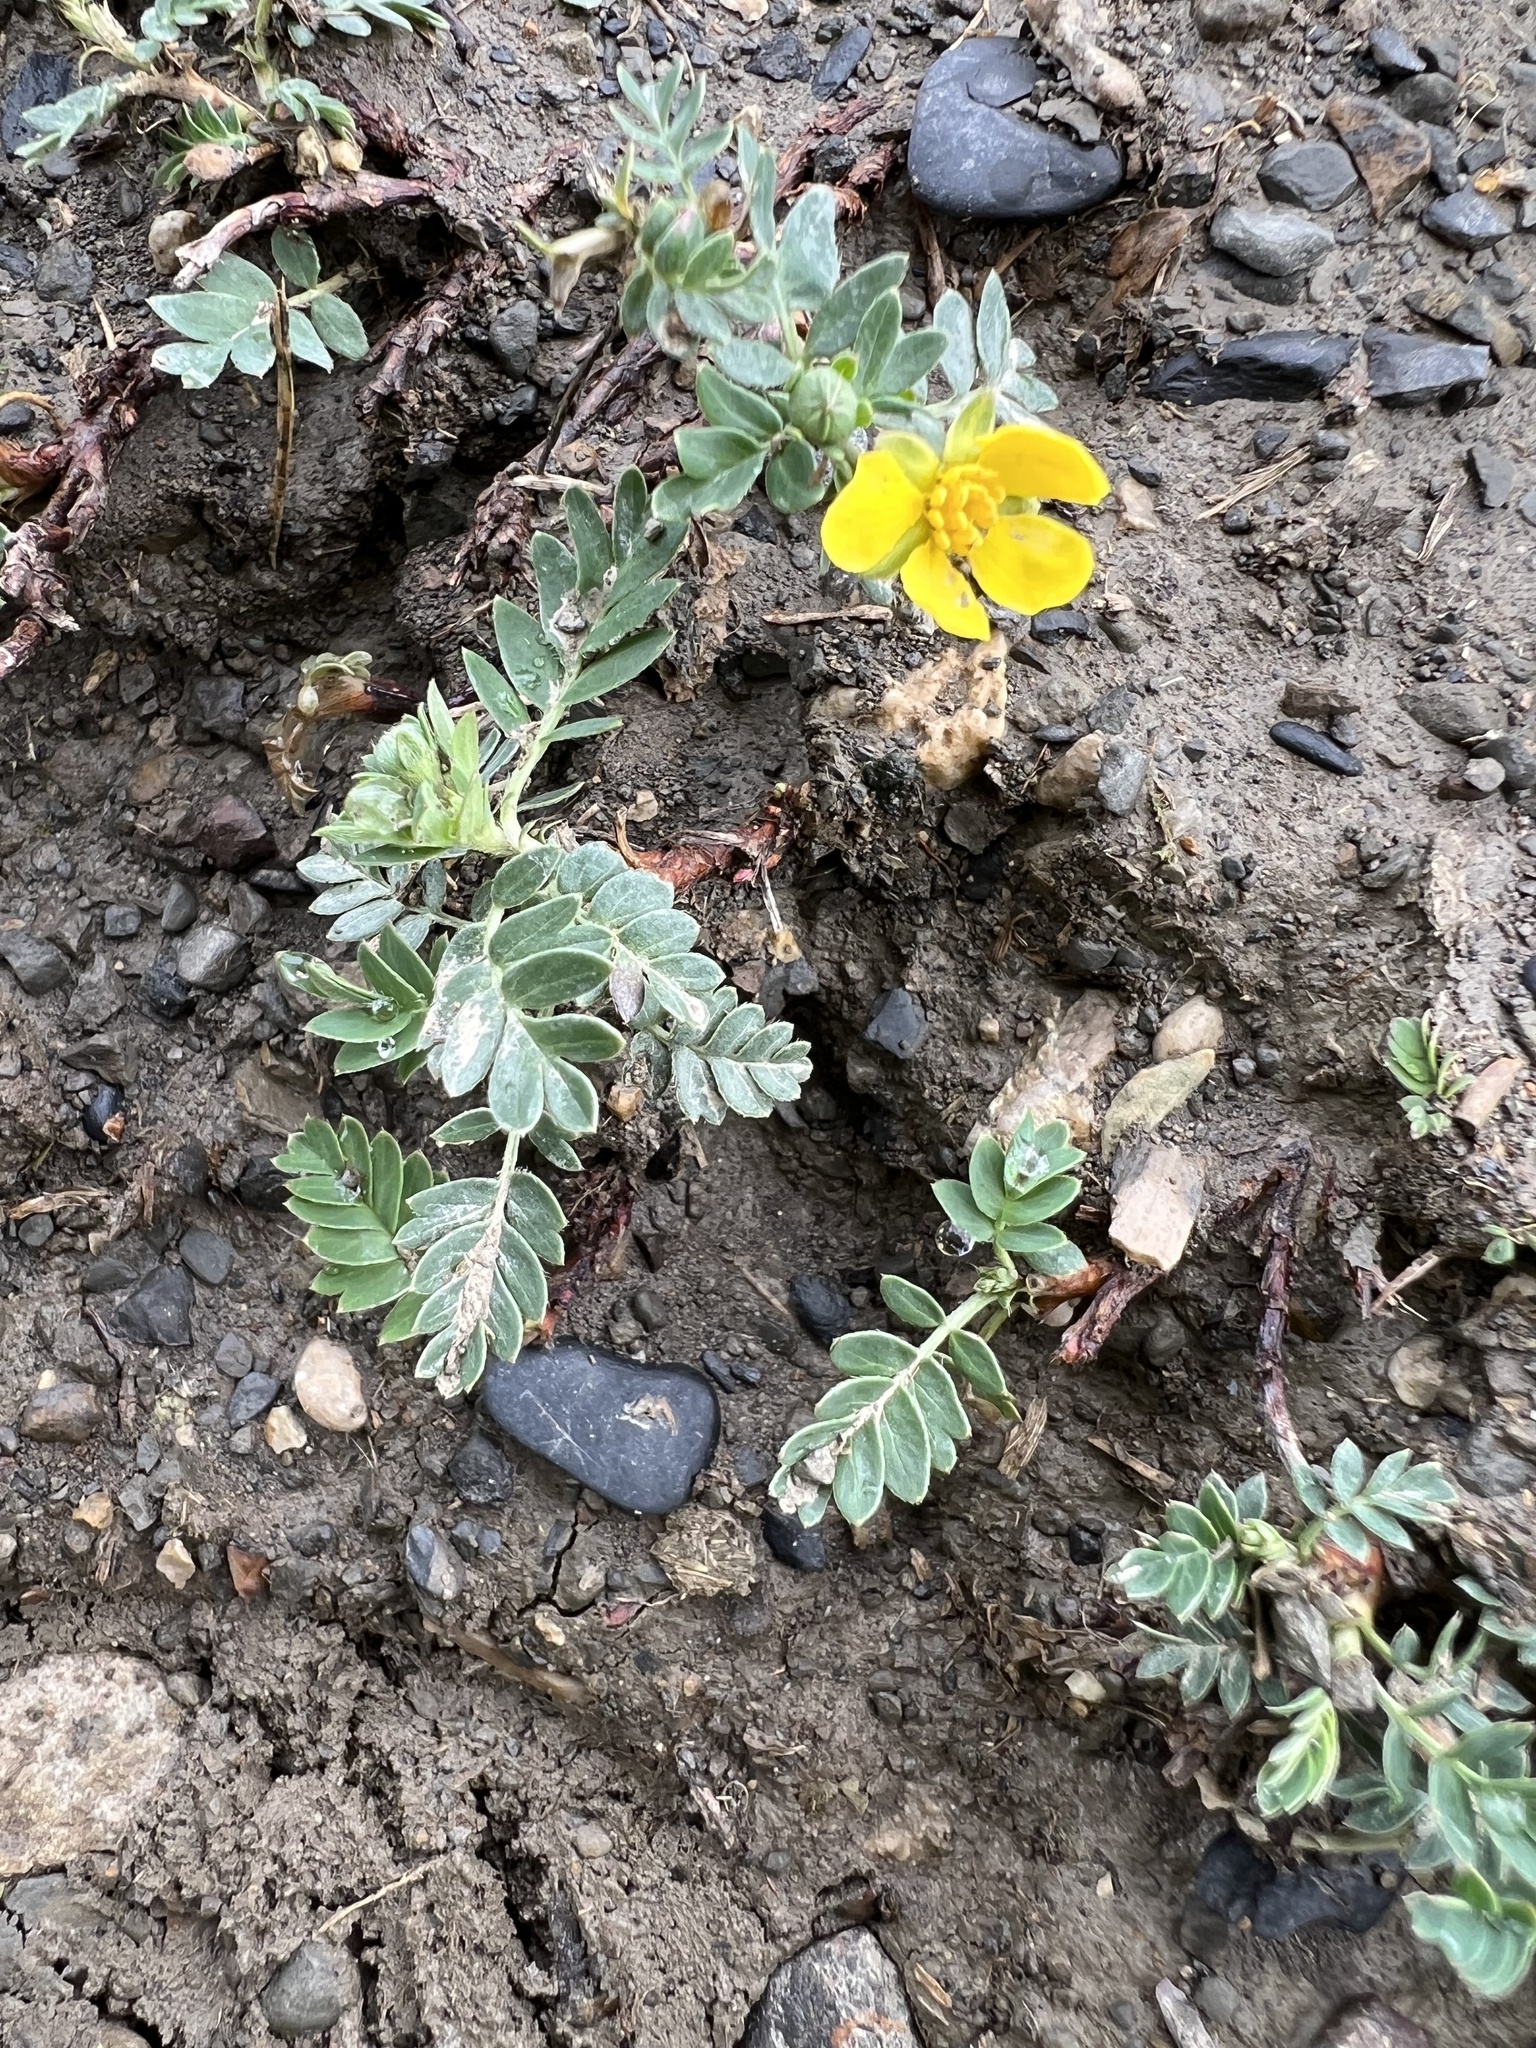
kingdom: Plantae
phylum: Tracheophyta
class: Magnoliopsida
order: Rosales
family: Rosaceae
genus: Sibbaldianthe
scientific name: Sibbaldianthe bifurca
